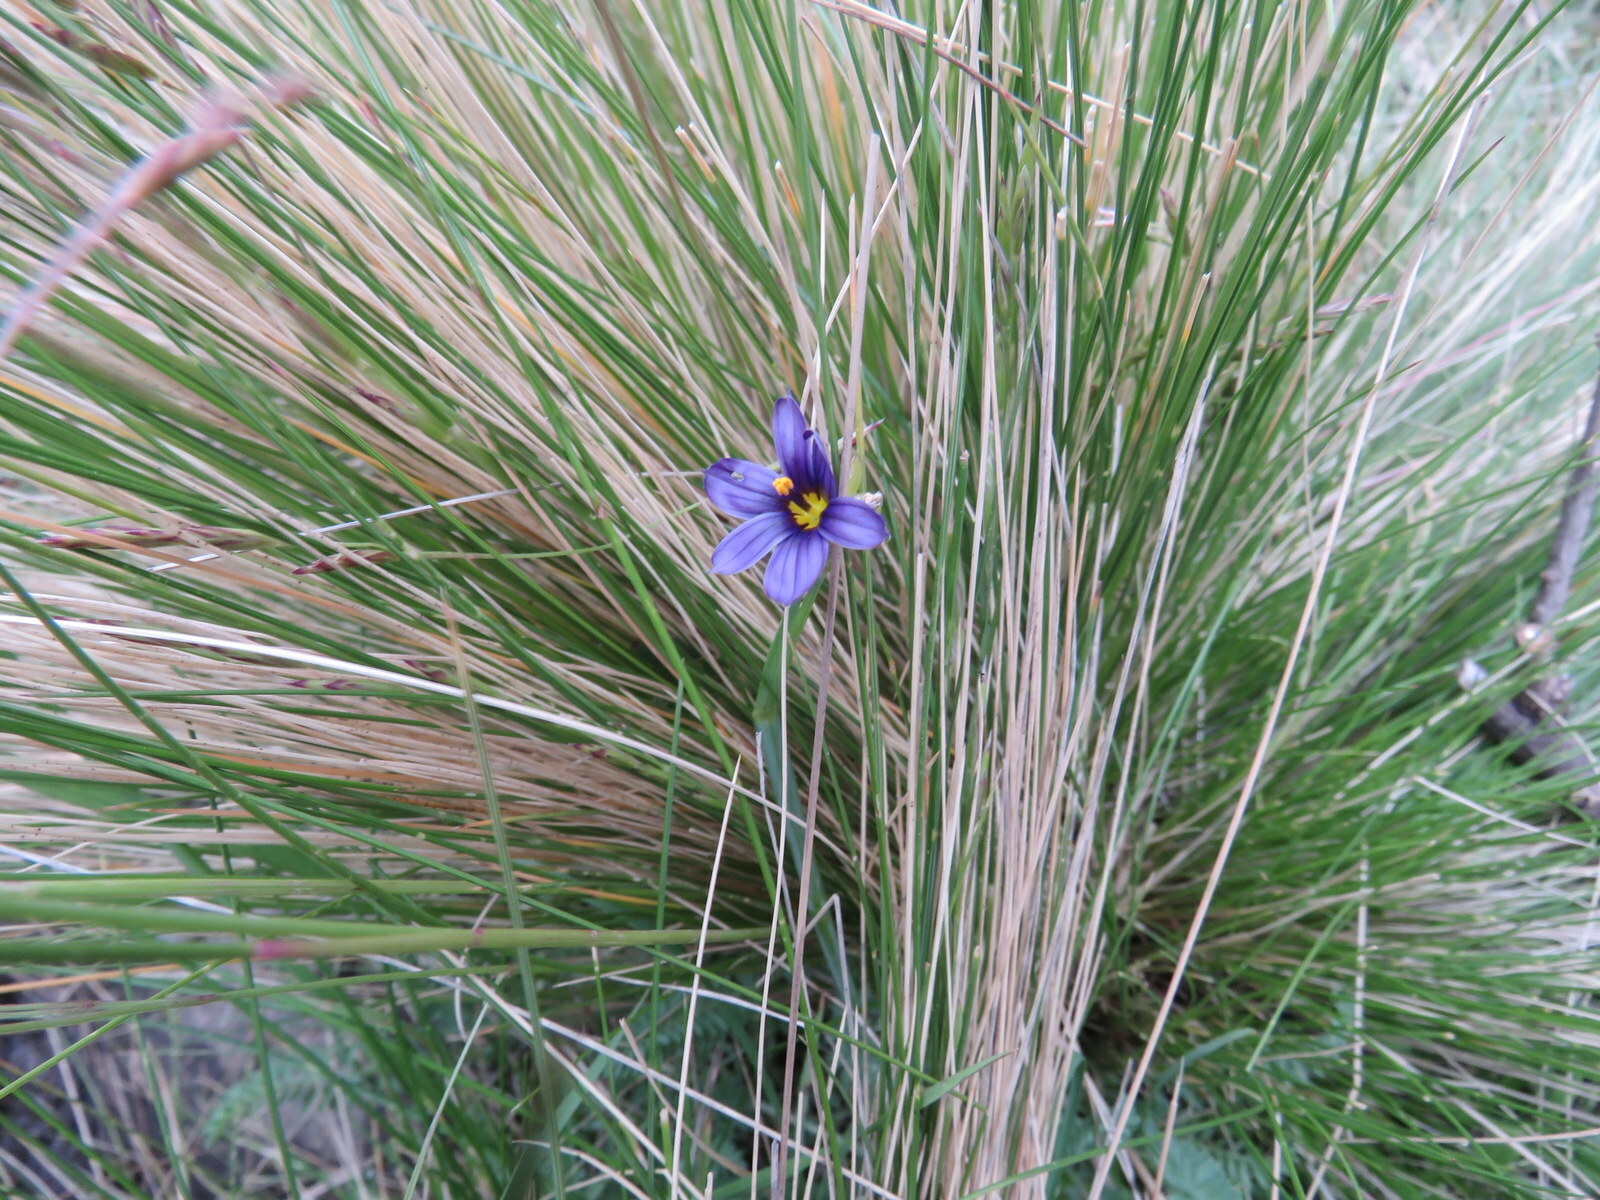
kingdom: Plantae
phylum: Tracheophyta
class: Liliopsida
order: Asparagales
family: Iridaceae
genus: Sisyrinchium
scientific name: Sisyrinchium chilense
